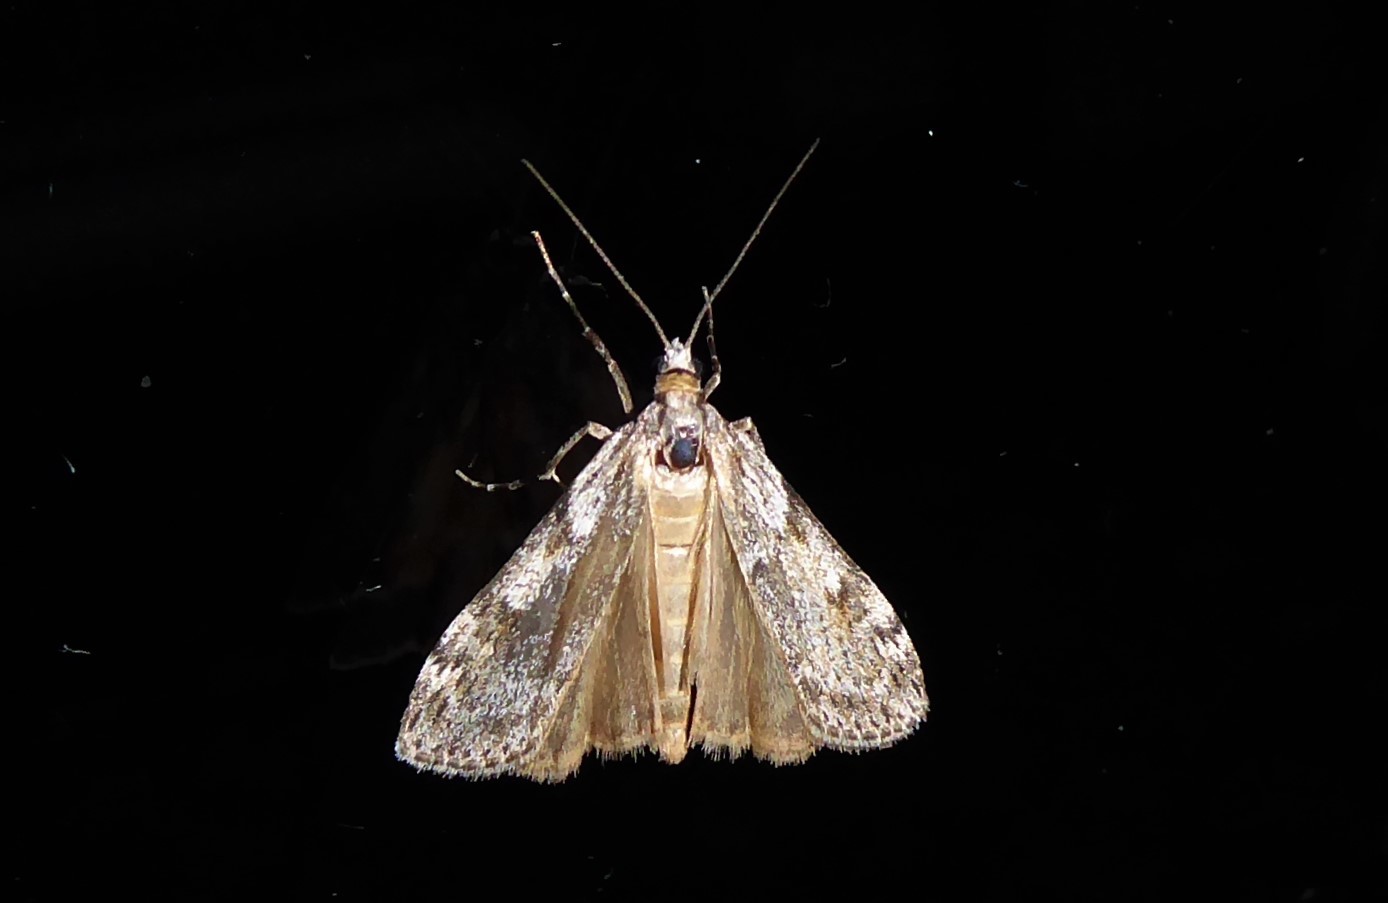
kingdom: Animalia
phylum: Arthropoda
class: Insecta
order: Lepidoptera
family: Crambidae
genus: Scoparia
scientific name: Scoparia halopis
